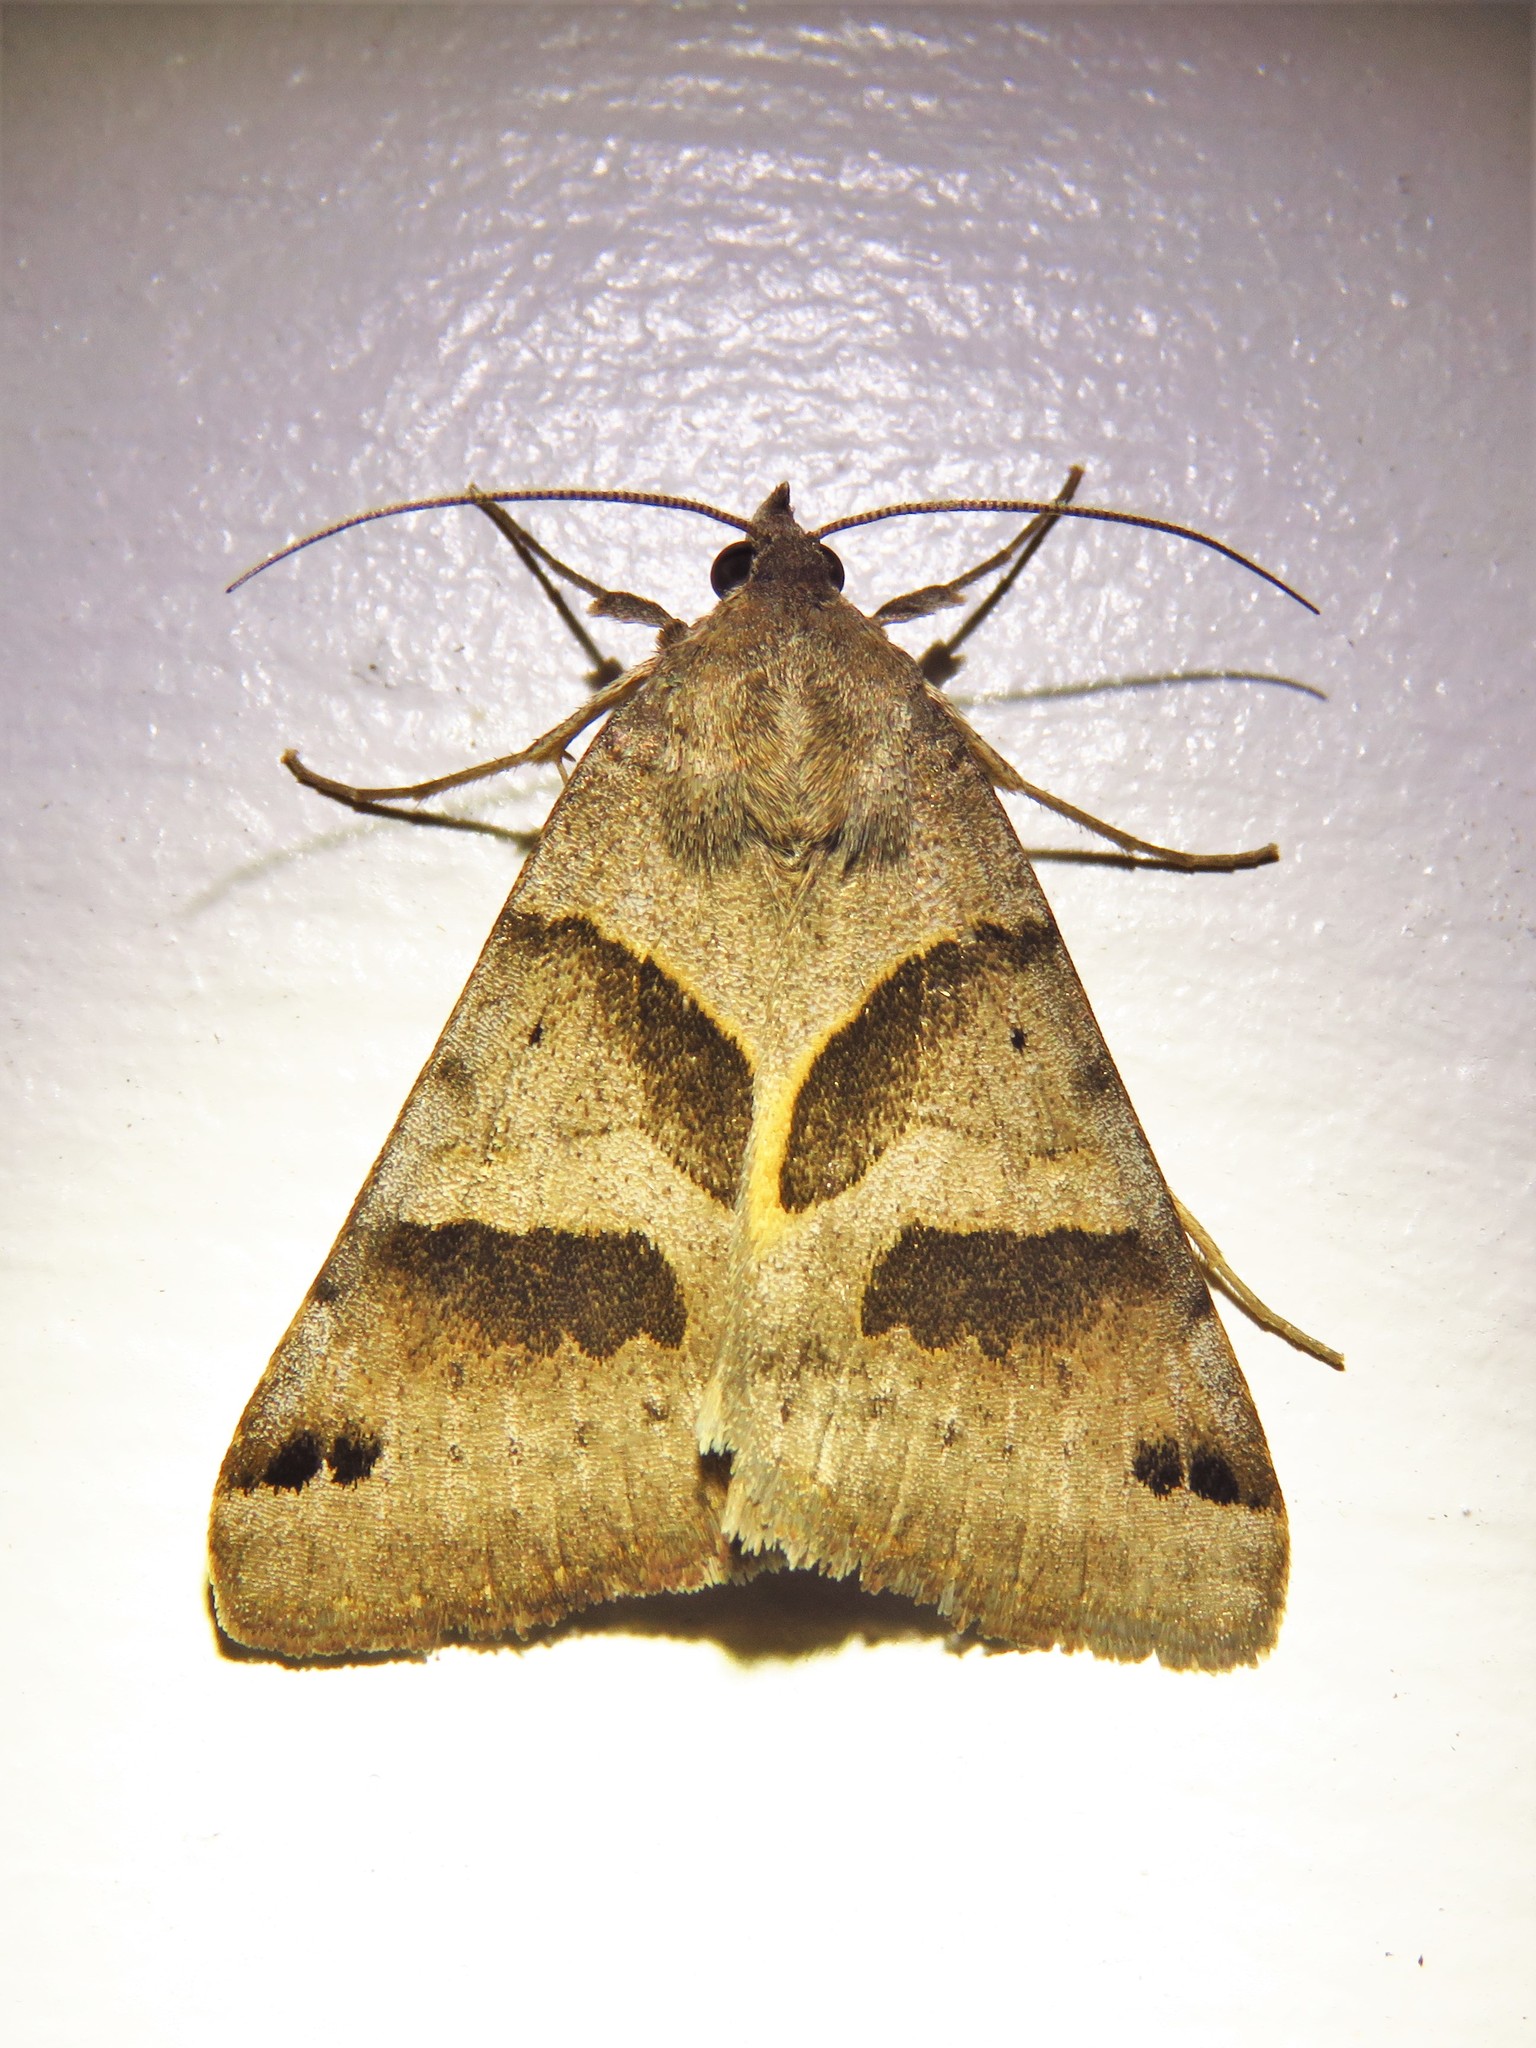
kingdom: Animalia
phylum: Arthropoda
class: Insecta
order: Lepidoptera
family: Erebidae
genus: Caenurgina
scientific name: Caenurgina erechtea
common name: Forage looper moth
